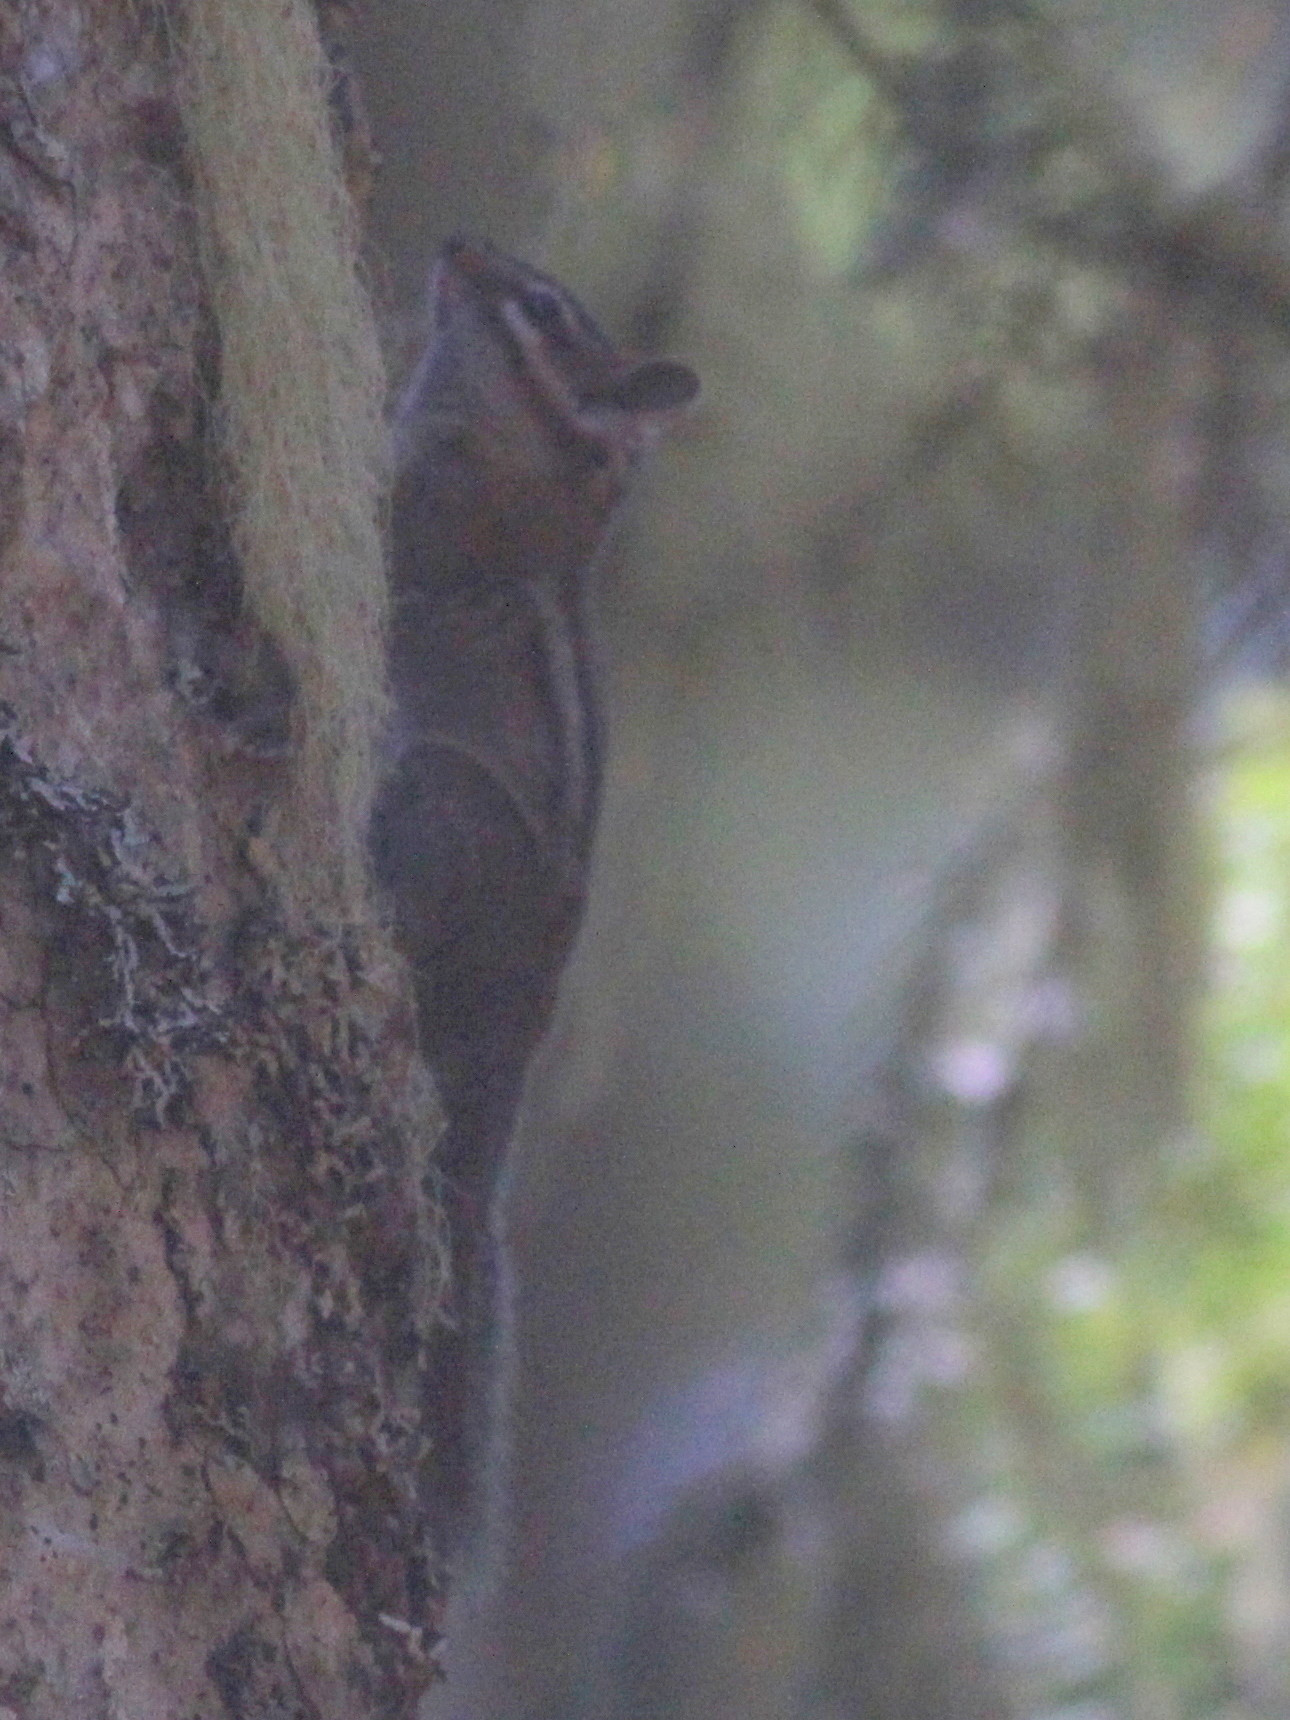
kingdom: Animalia
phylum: Chordata
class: Mammalia
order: Rodentia
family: Sciuridae
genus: Tamias
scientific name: Tamias townsendii
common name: Townsend's chipmunk
